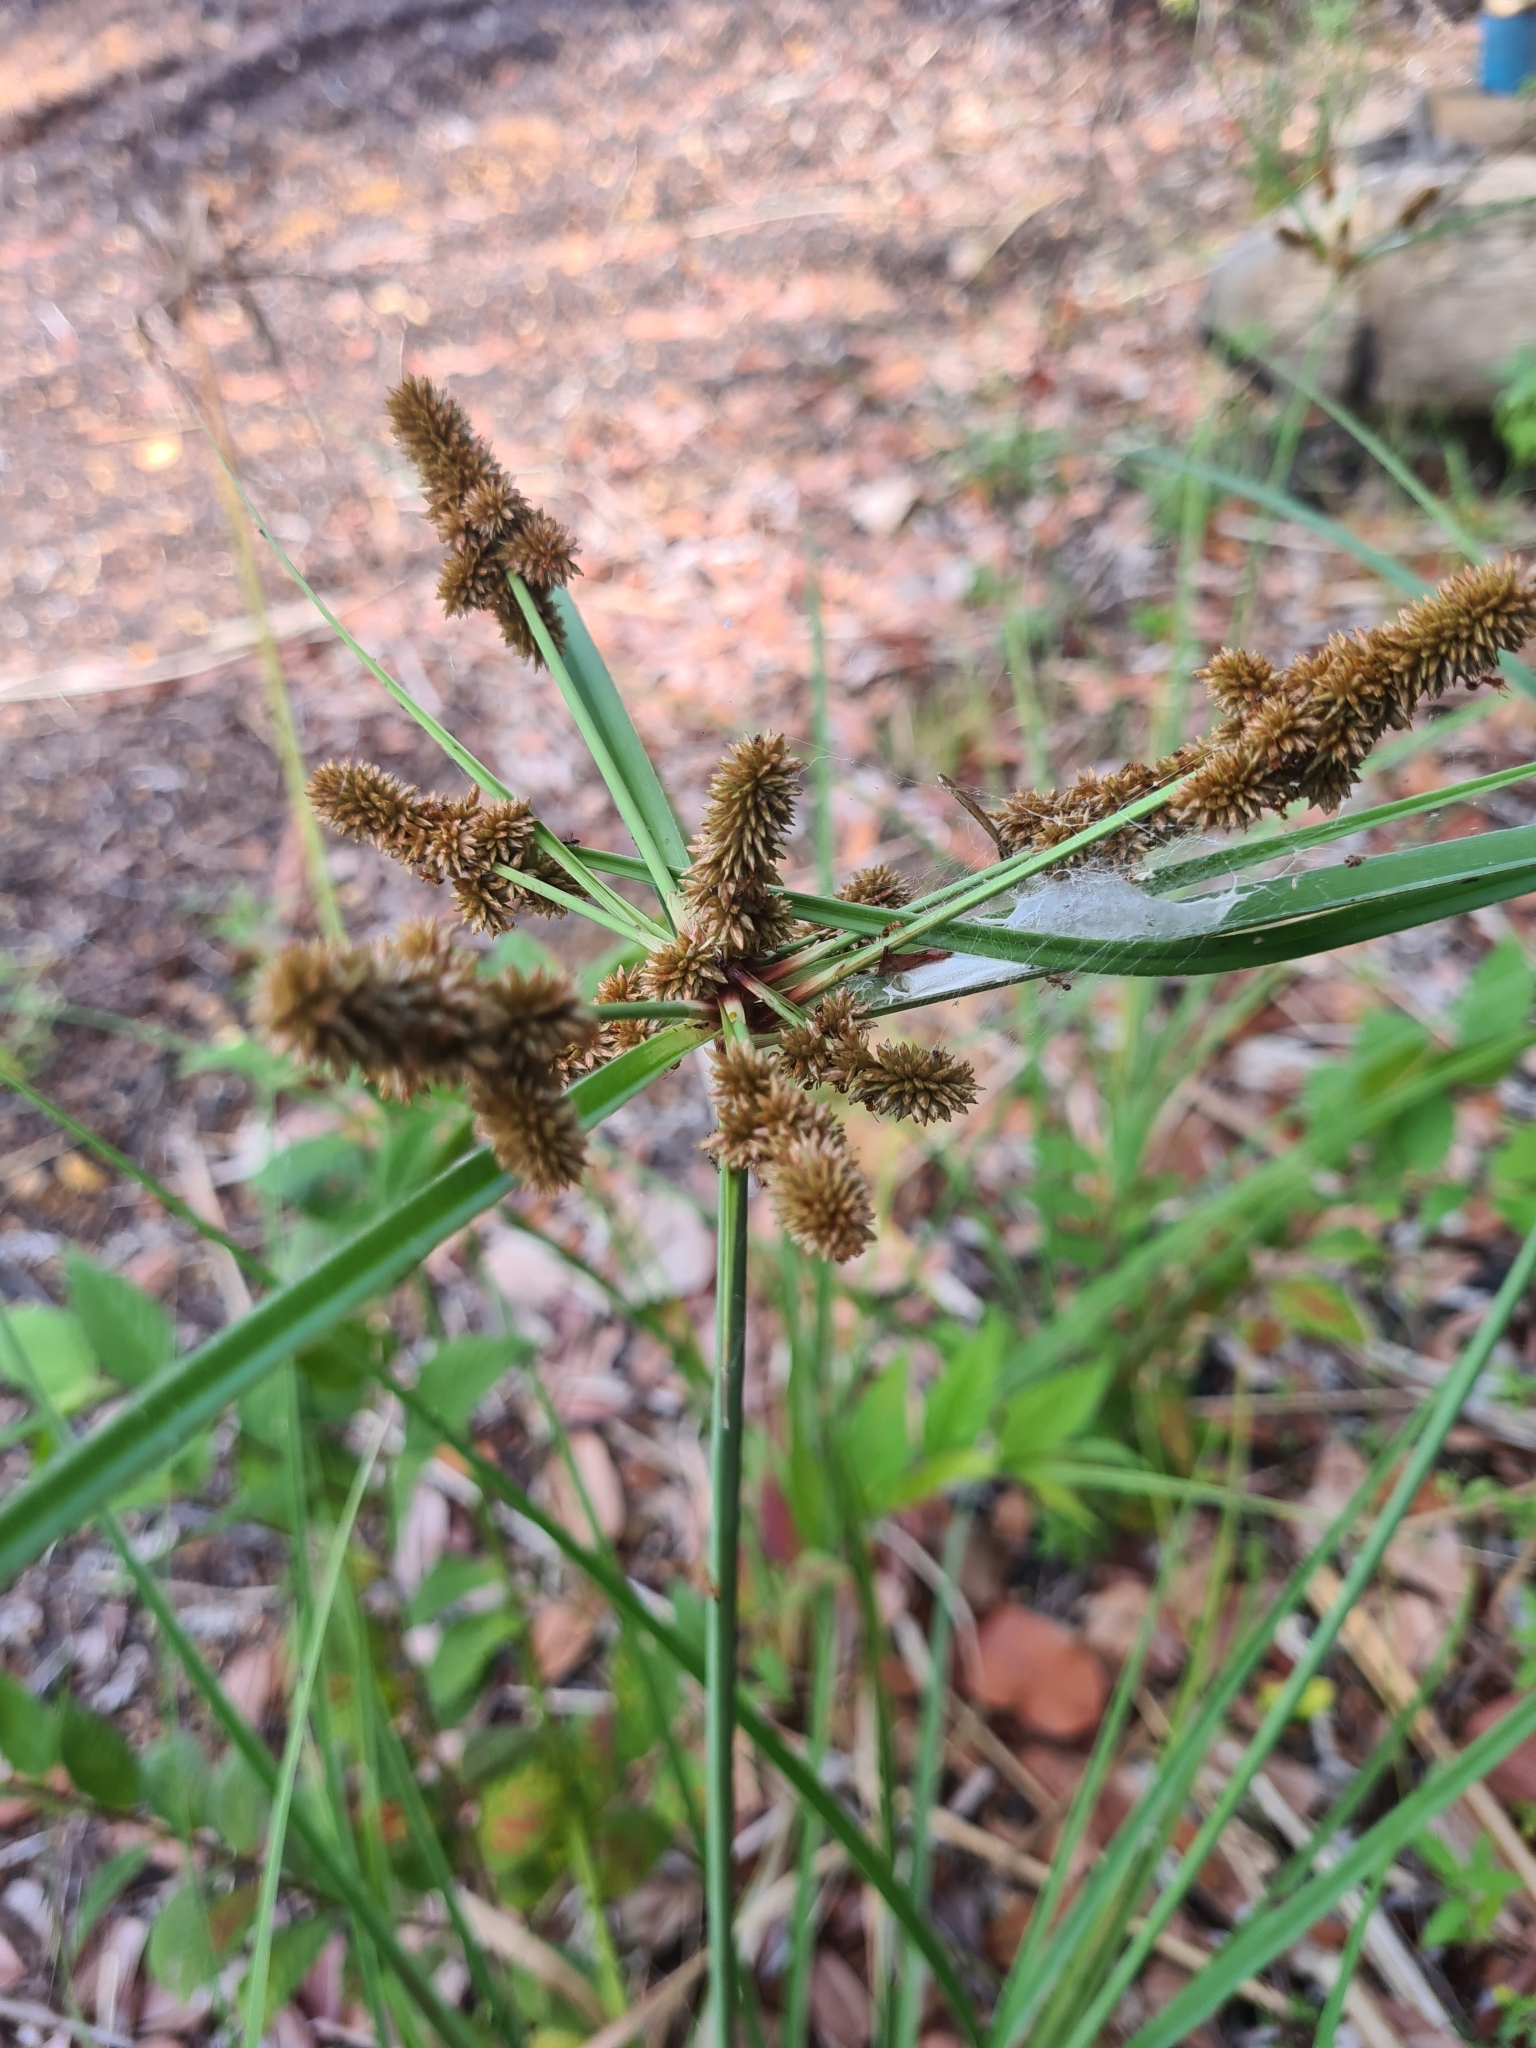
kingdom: Plantae
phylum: Tracheophyta
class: Liliopsida
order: Poales
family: Cyperaceae
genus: Cyperus
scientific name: Cyperus ligularis
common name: Swamp flat sedge
